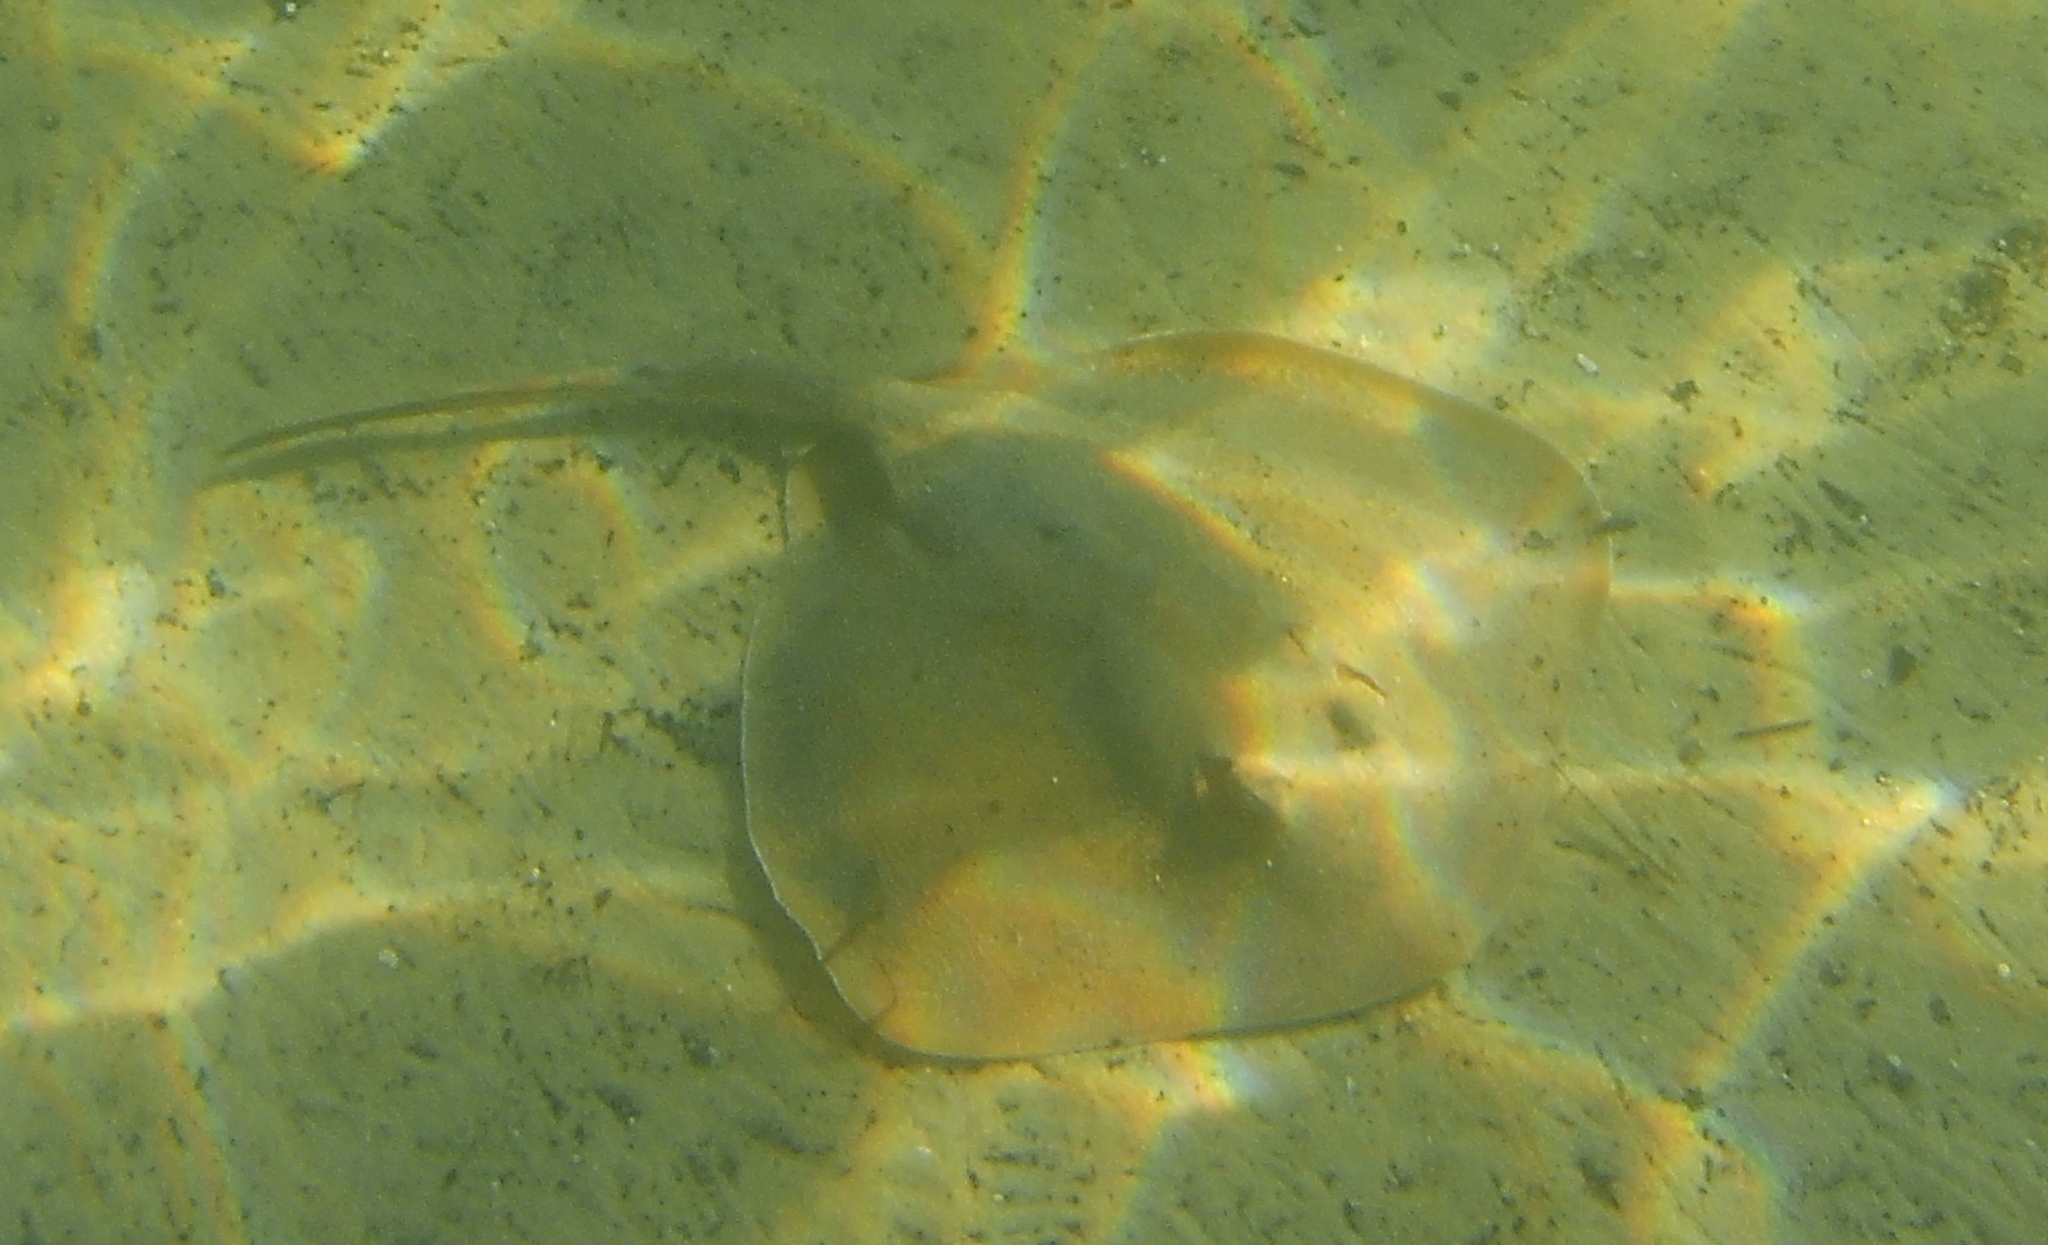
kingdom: Animalia
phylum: Chordata
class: Elasmobranchii
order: Myliobatiformes
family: Urolophidae
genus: Trygonoptera
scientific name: Trygonoptera testacea
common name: Common stingaree
